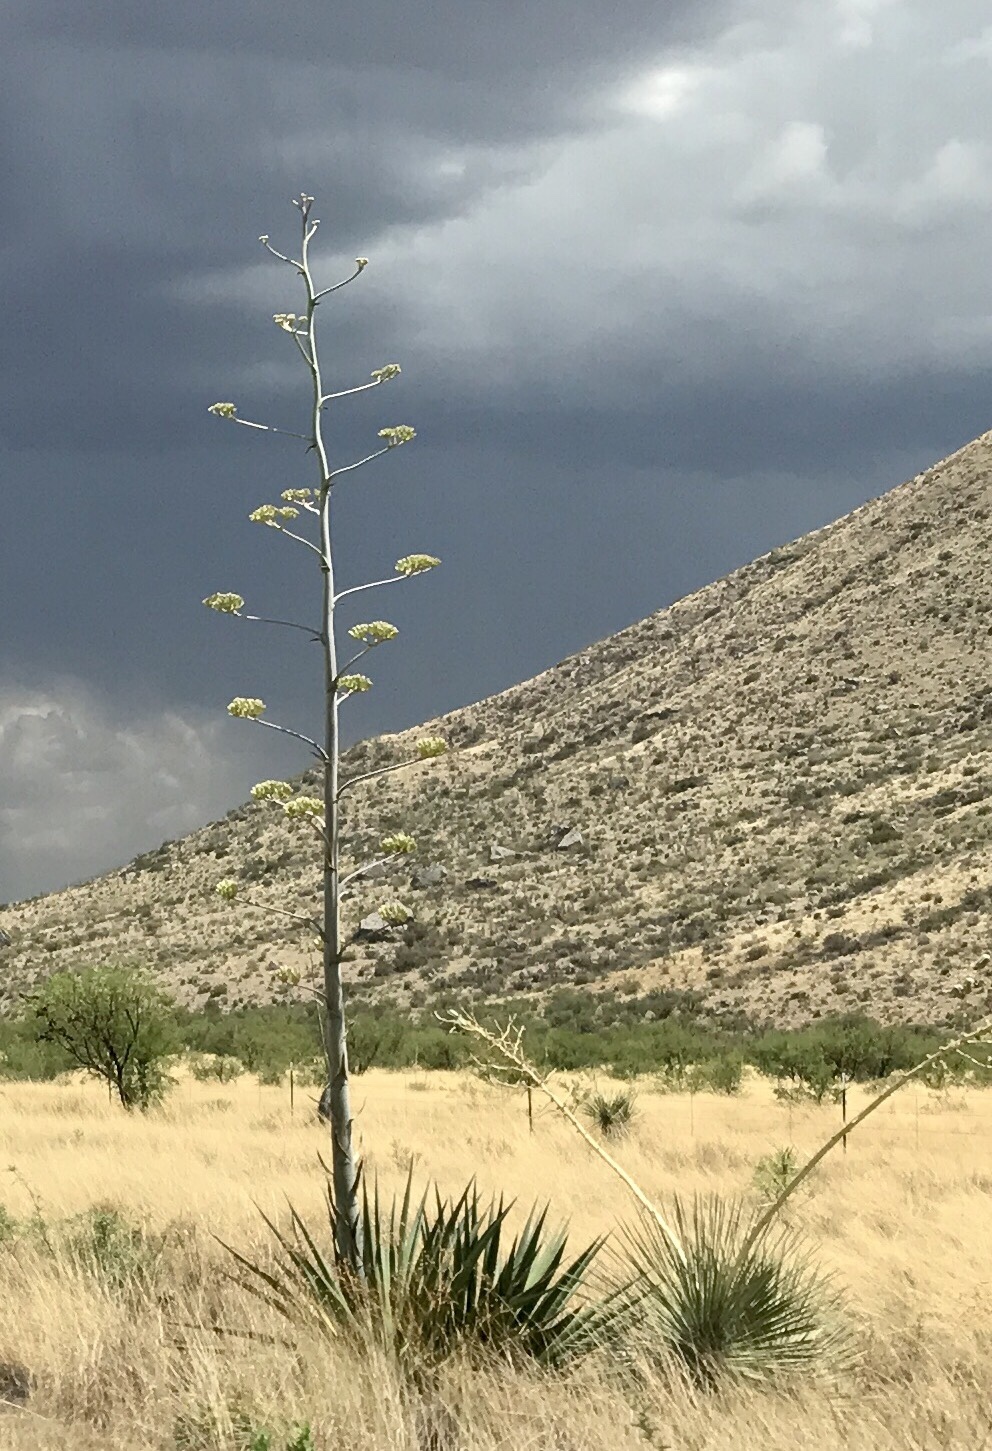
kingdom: Plantae
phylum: Tracheophyta
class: Liliopsida
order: Asparagales
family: Asparagaceae
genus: Agave
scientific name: Agave palmeri
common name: Palmer agave
